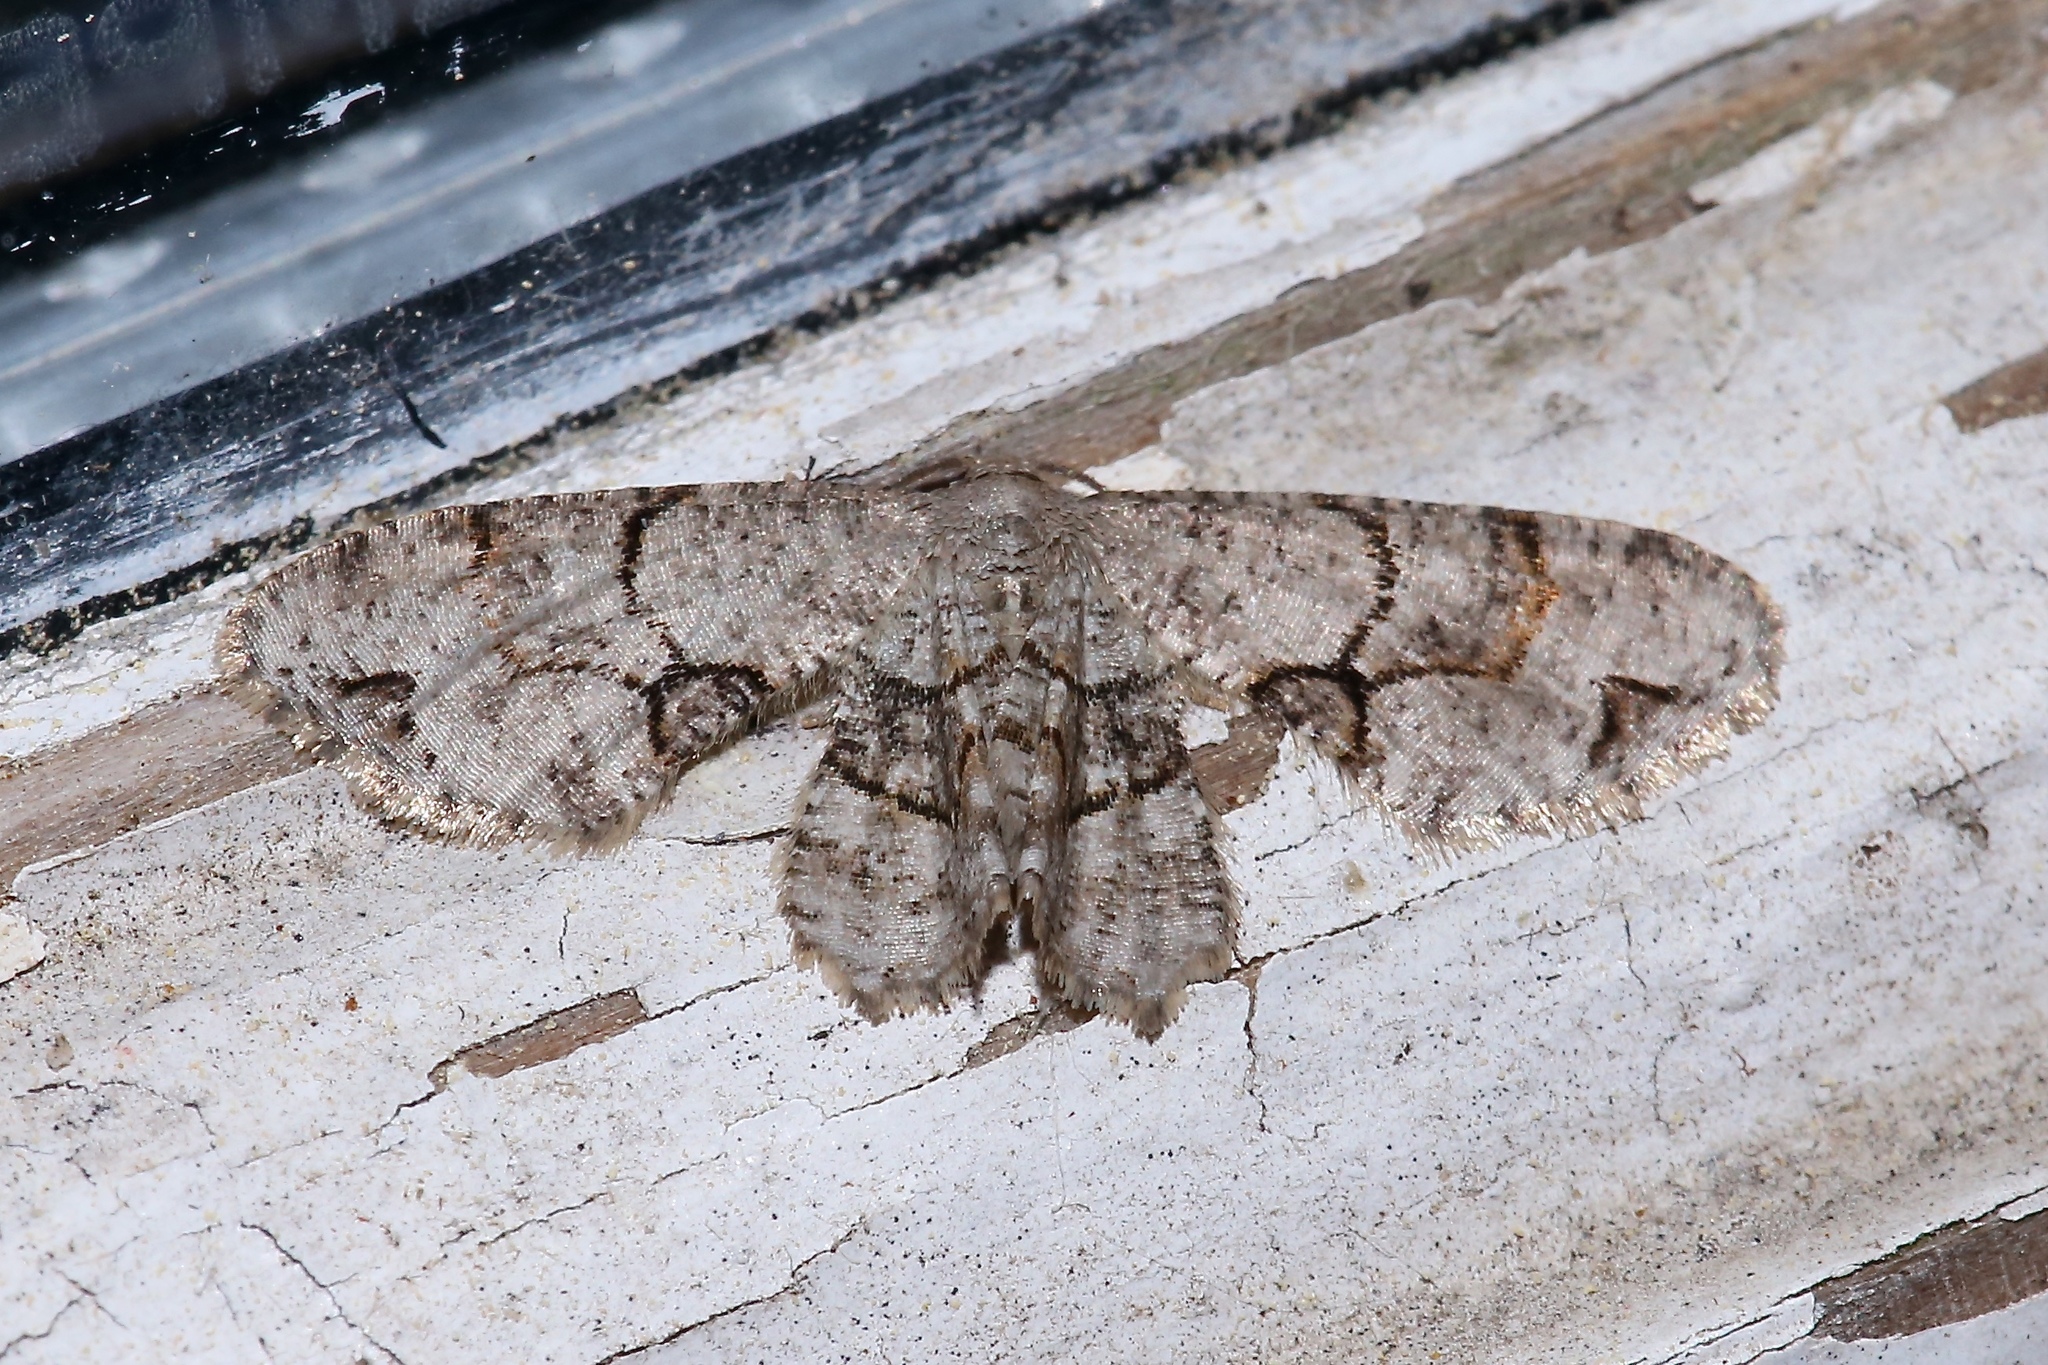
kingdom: Animalia
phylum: Arthropoda
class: Insecta
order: Lepidoptera
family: Uraniidae
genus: Epiplema
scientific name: Epiplema Callizzia amorata
